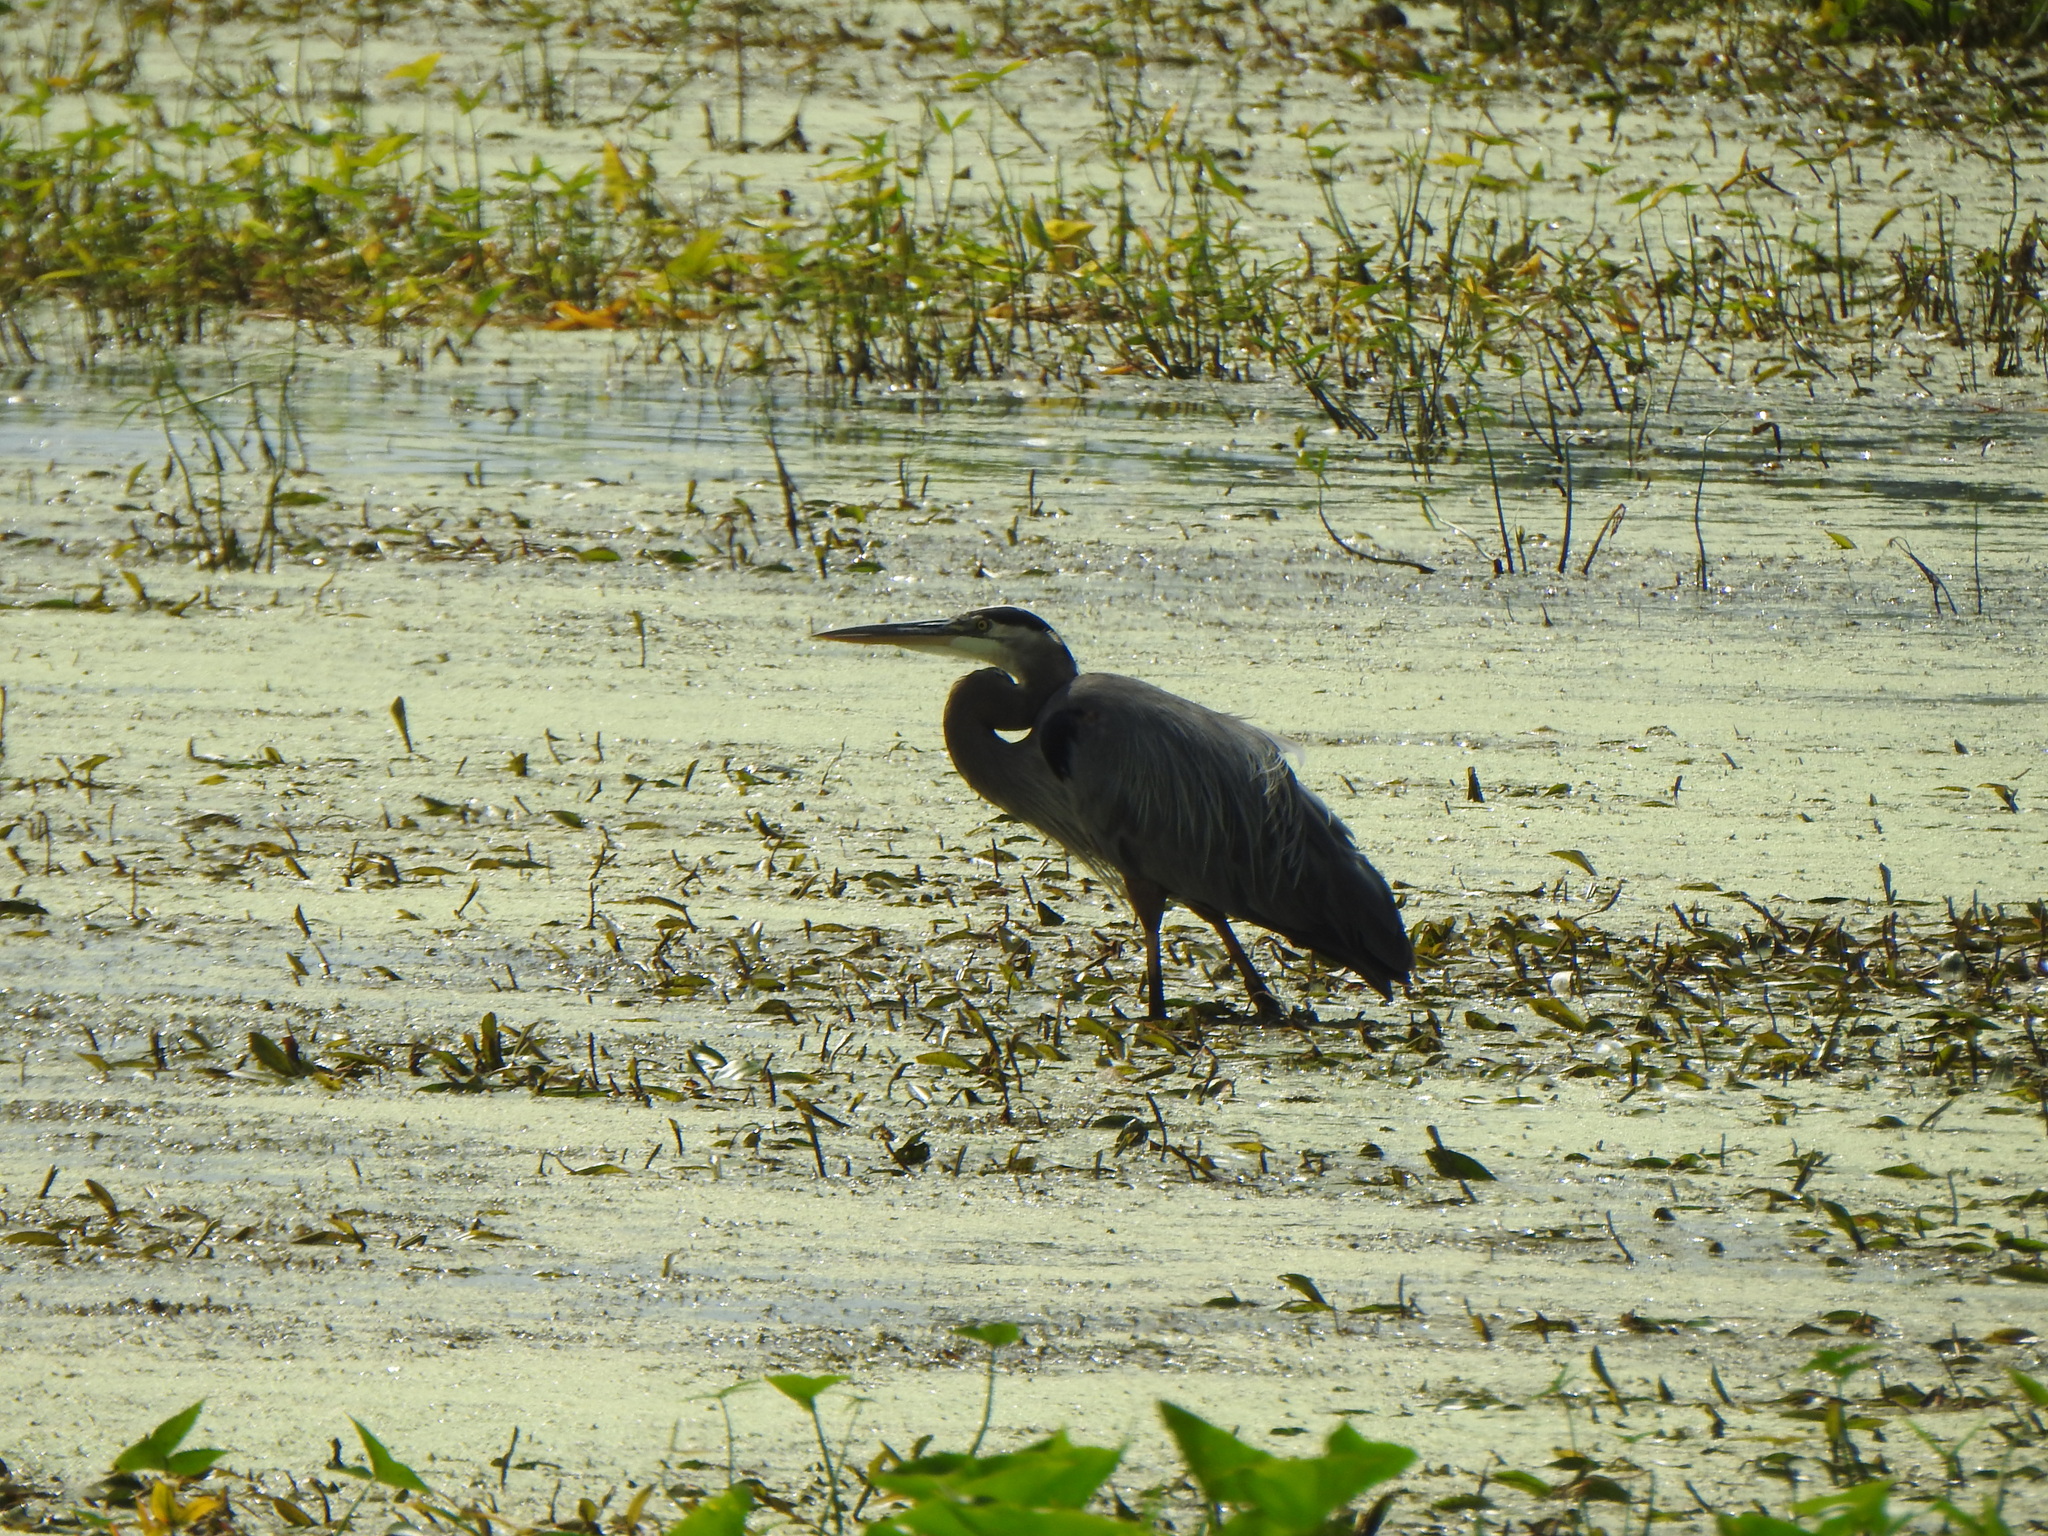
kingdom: Animalia
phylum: Chordata
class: Aves
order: Pelecaniformes
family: Ardeidae
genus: Ardea
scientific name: Ardea herodias
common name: Great blue heron
